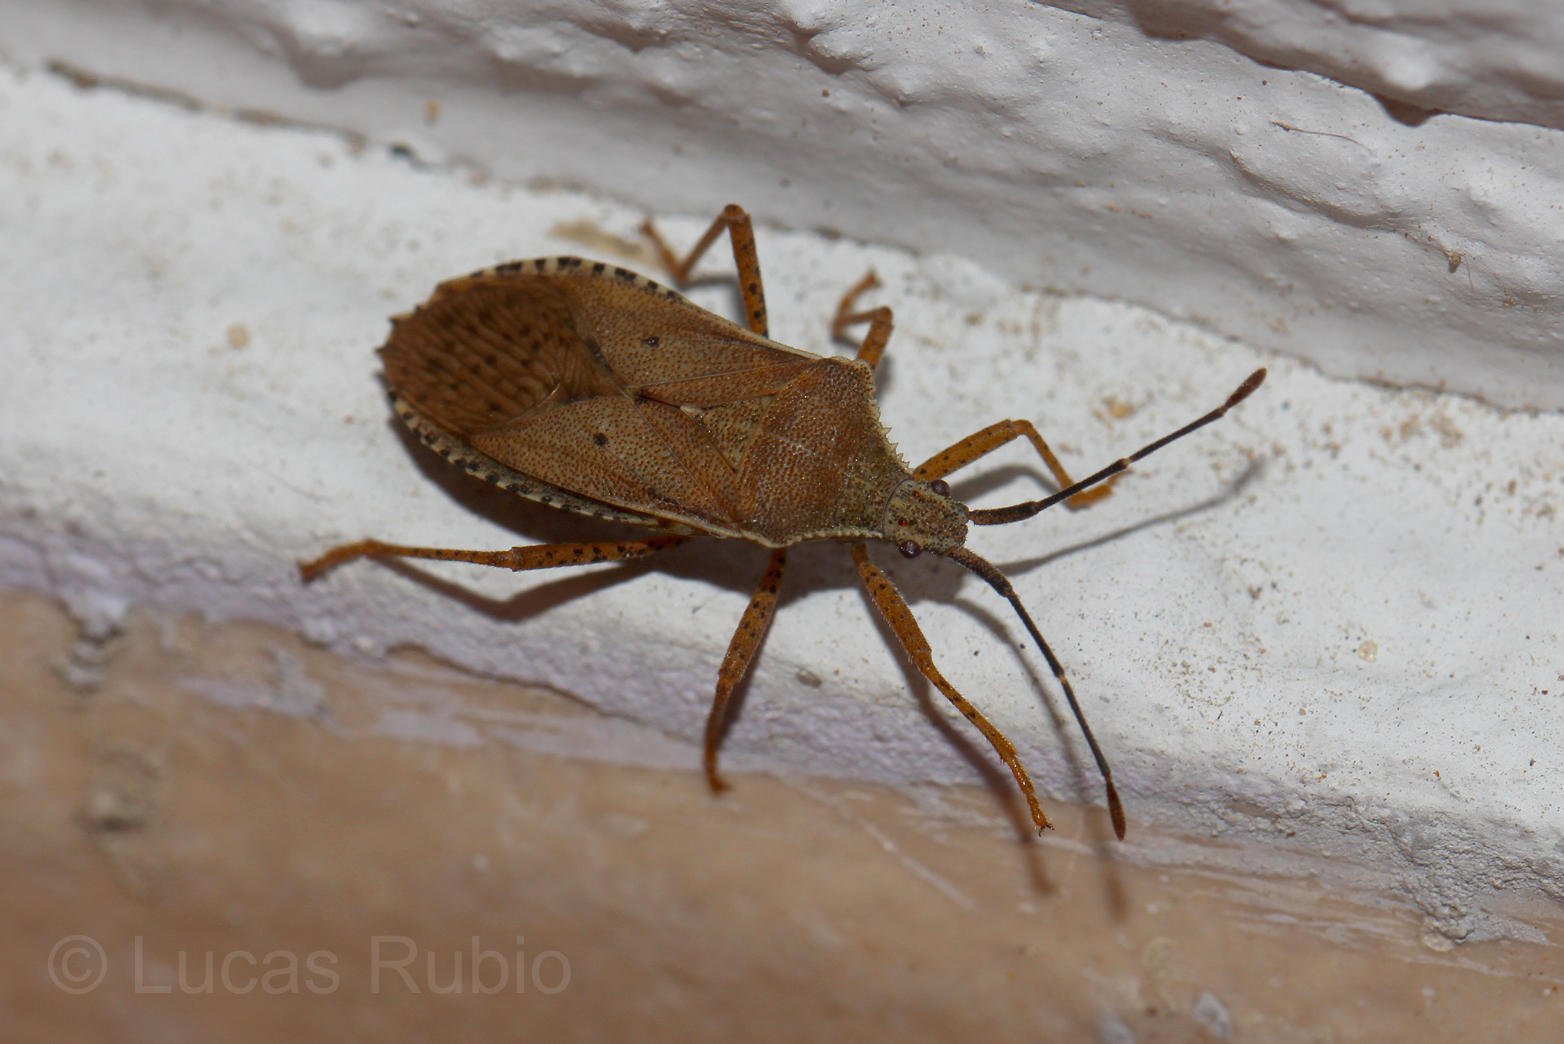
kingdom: Animalia
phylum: Arthropoda
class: Insecta
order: Hemiptera
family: Coreidae
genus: Anasa
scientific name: Anasa guttifera
